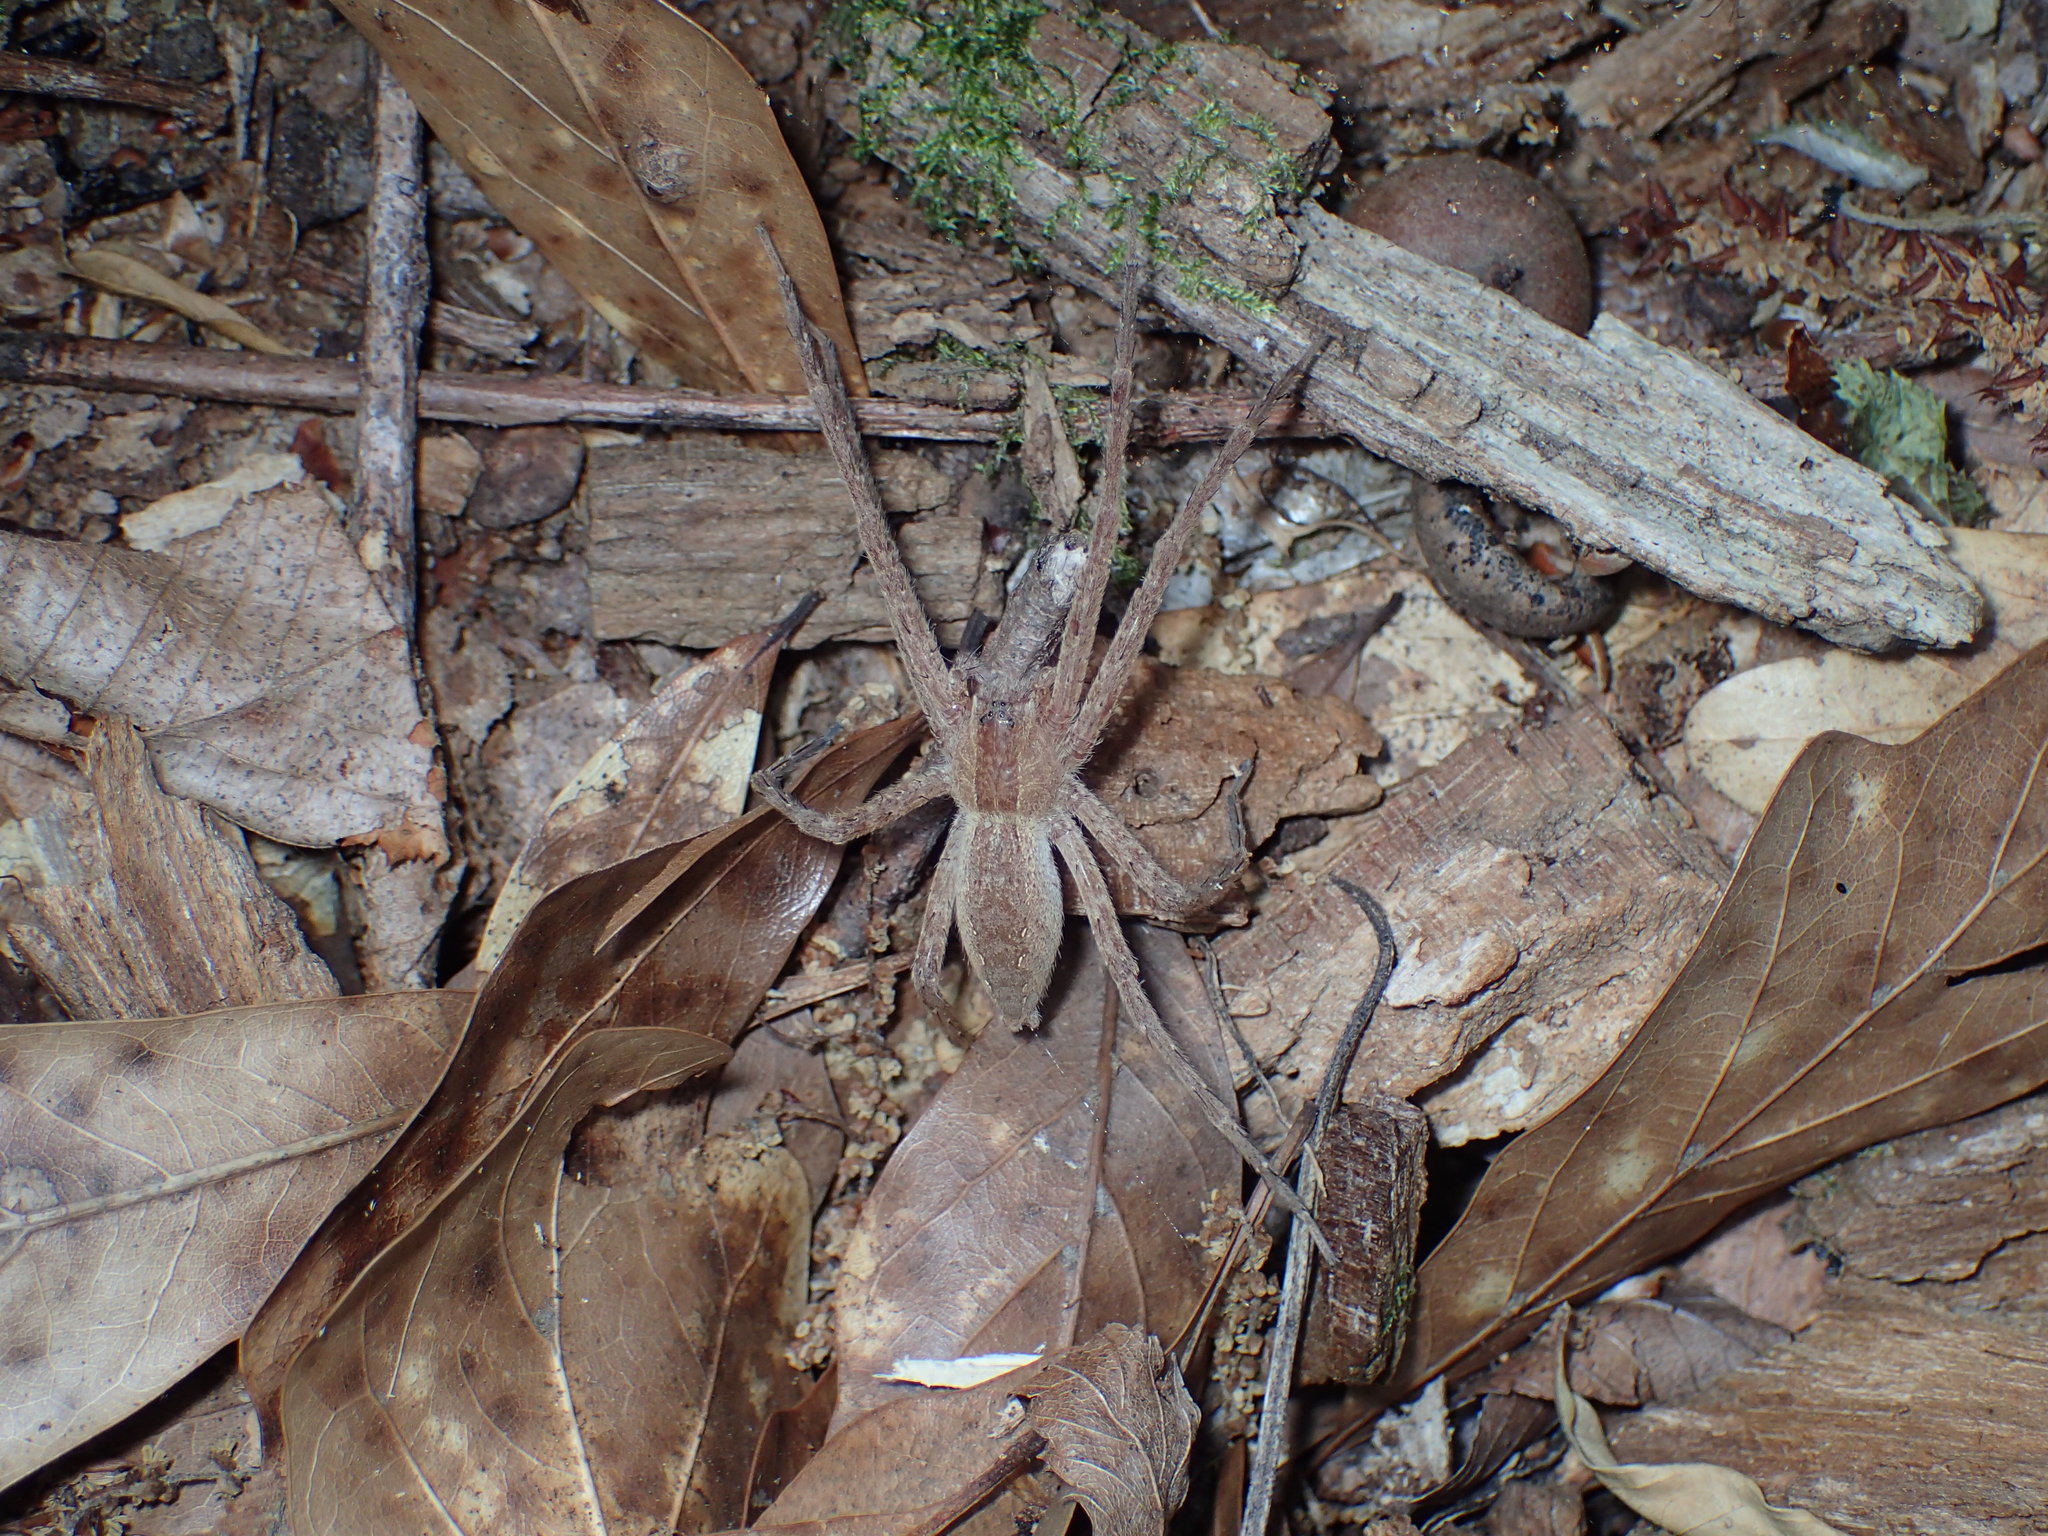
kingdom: Animalia
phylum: Arthropoda
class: Arachnida
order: Araneae
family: Pisauridae
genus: Pisaurina
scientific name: Pisaurina mira
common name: American nursery web spider
